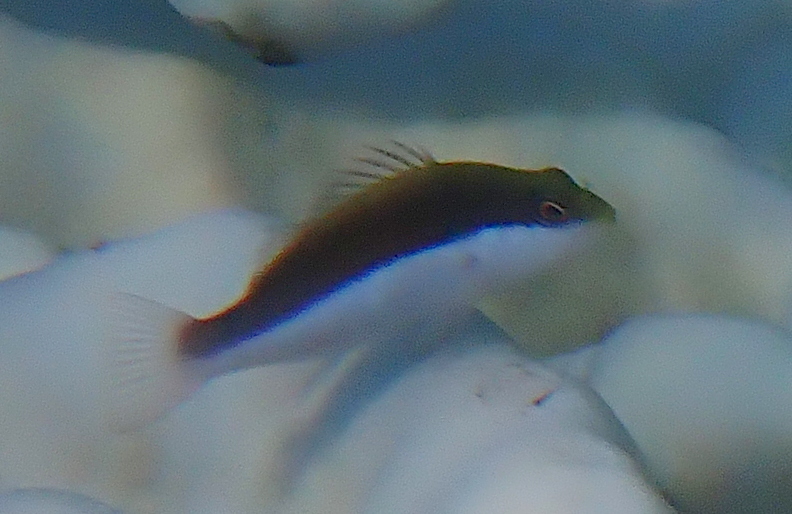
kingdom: Animalia
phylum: Chordata
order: Perciformes
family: Cirrhitidae
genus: Paracirrhites
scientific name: Paracirrhites forsteri
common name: Freckled hawkfish
